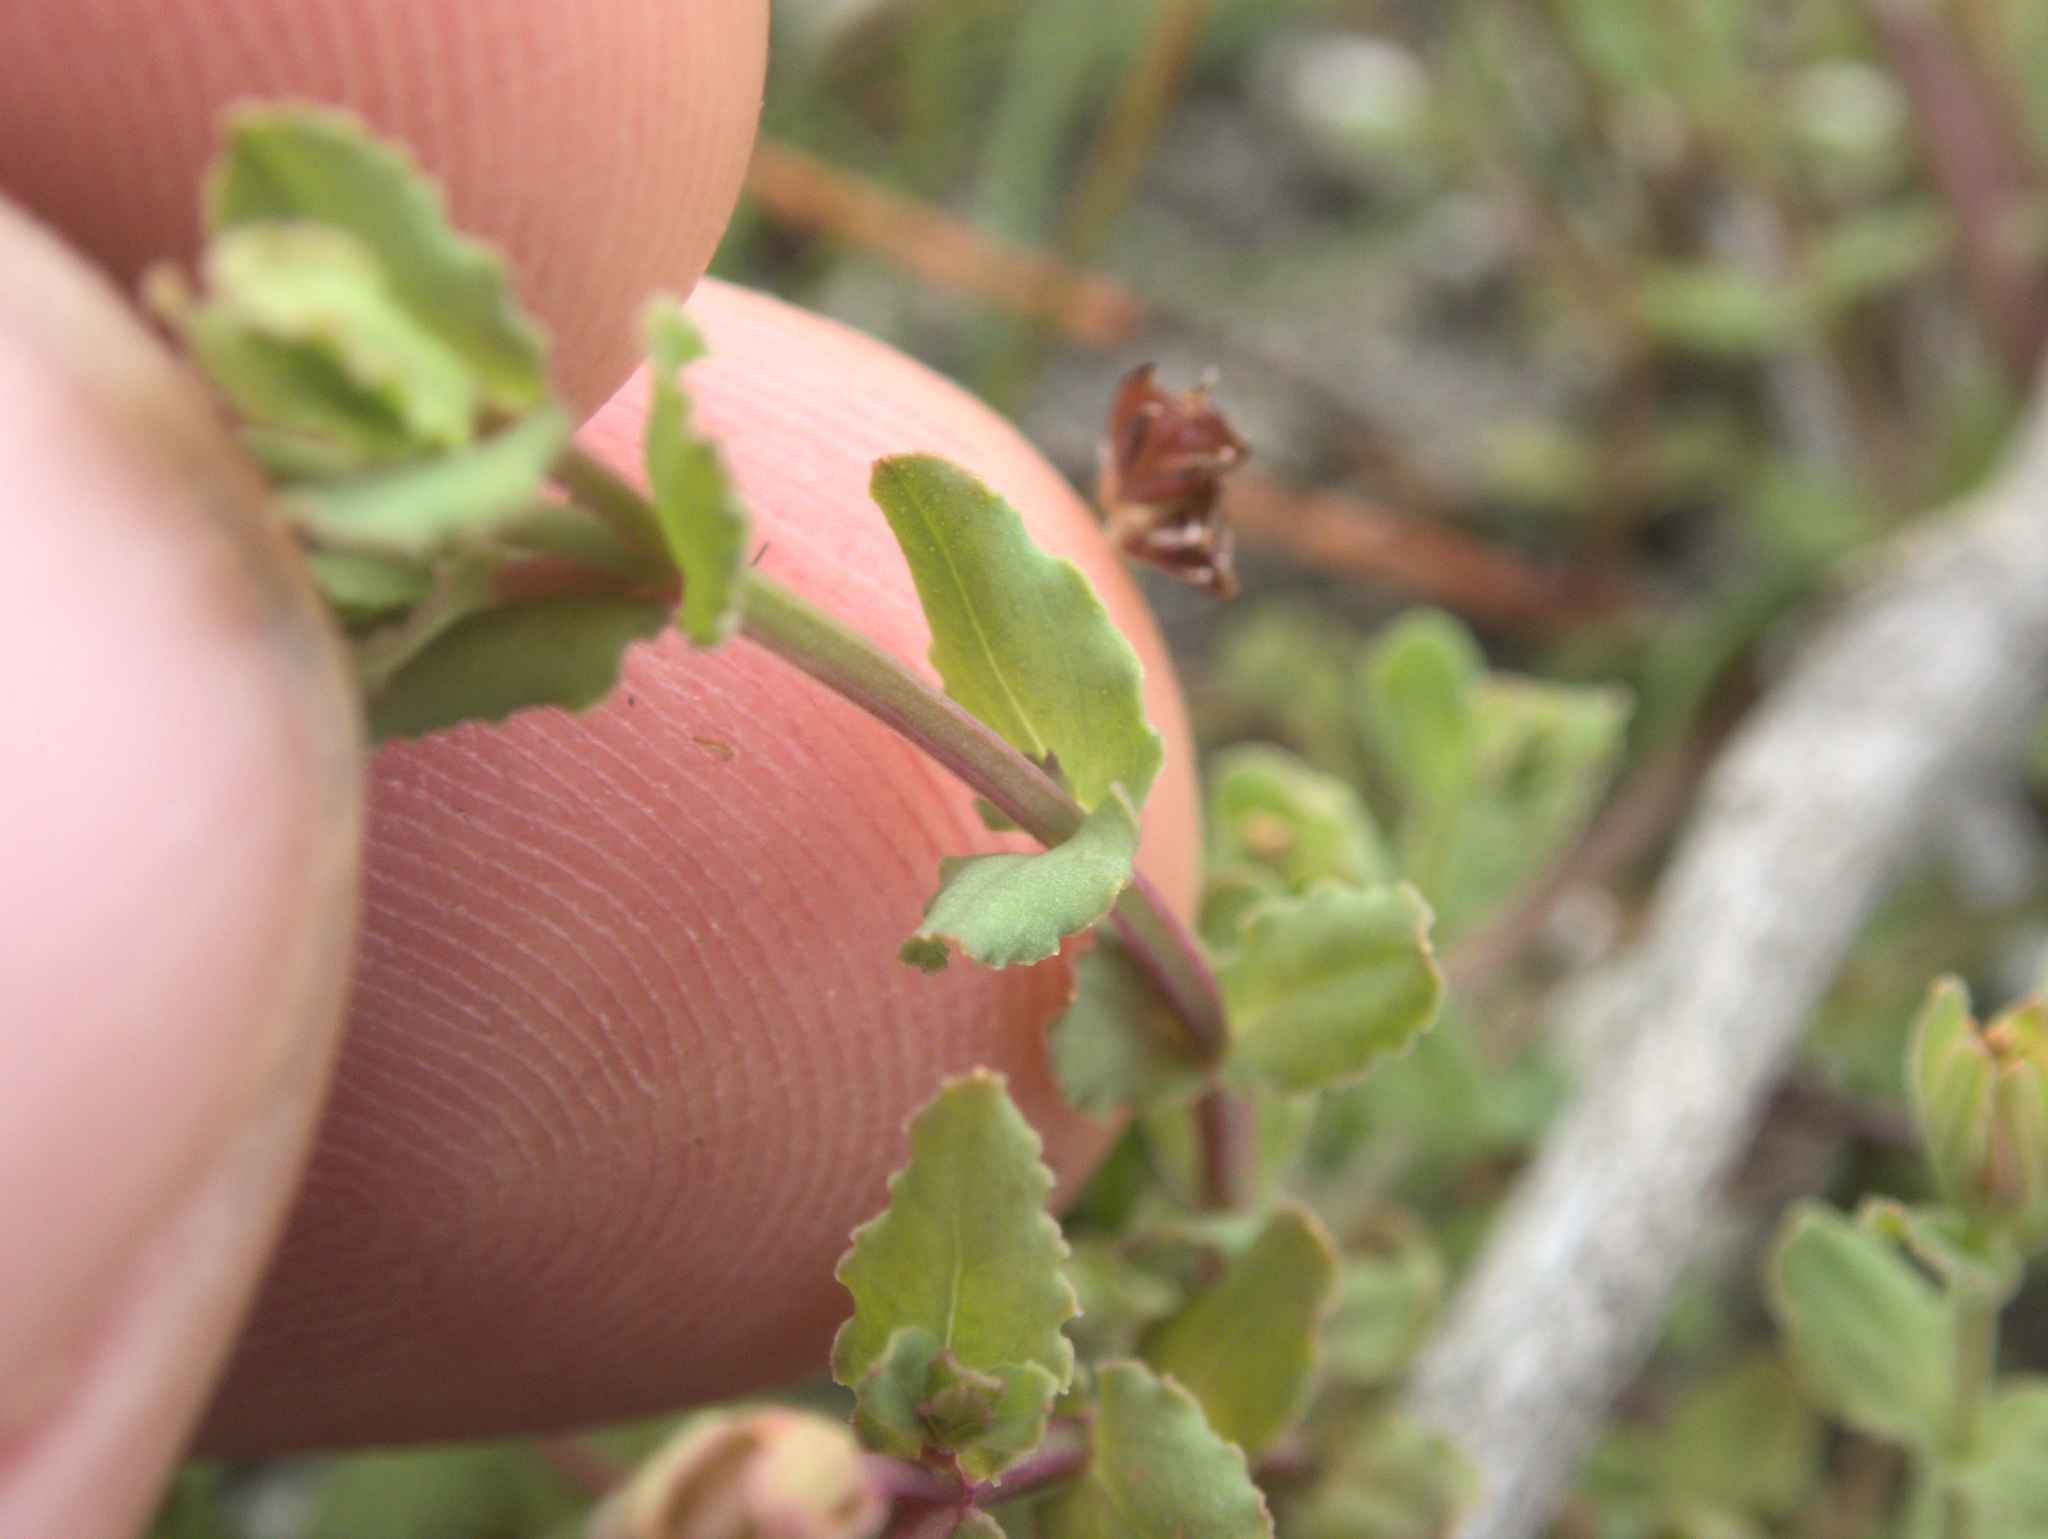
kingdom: Plantae
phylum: Tracheophyta
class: Magnoliopsida
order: Malpighiales
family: Hypericaceae
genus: Hypericum
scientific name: Hypericum japonicum
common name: Matted st. john's-wort
